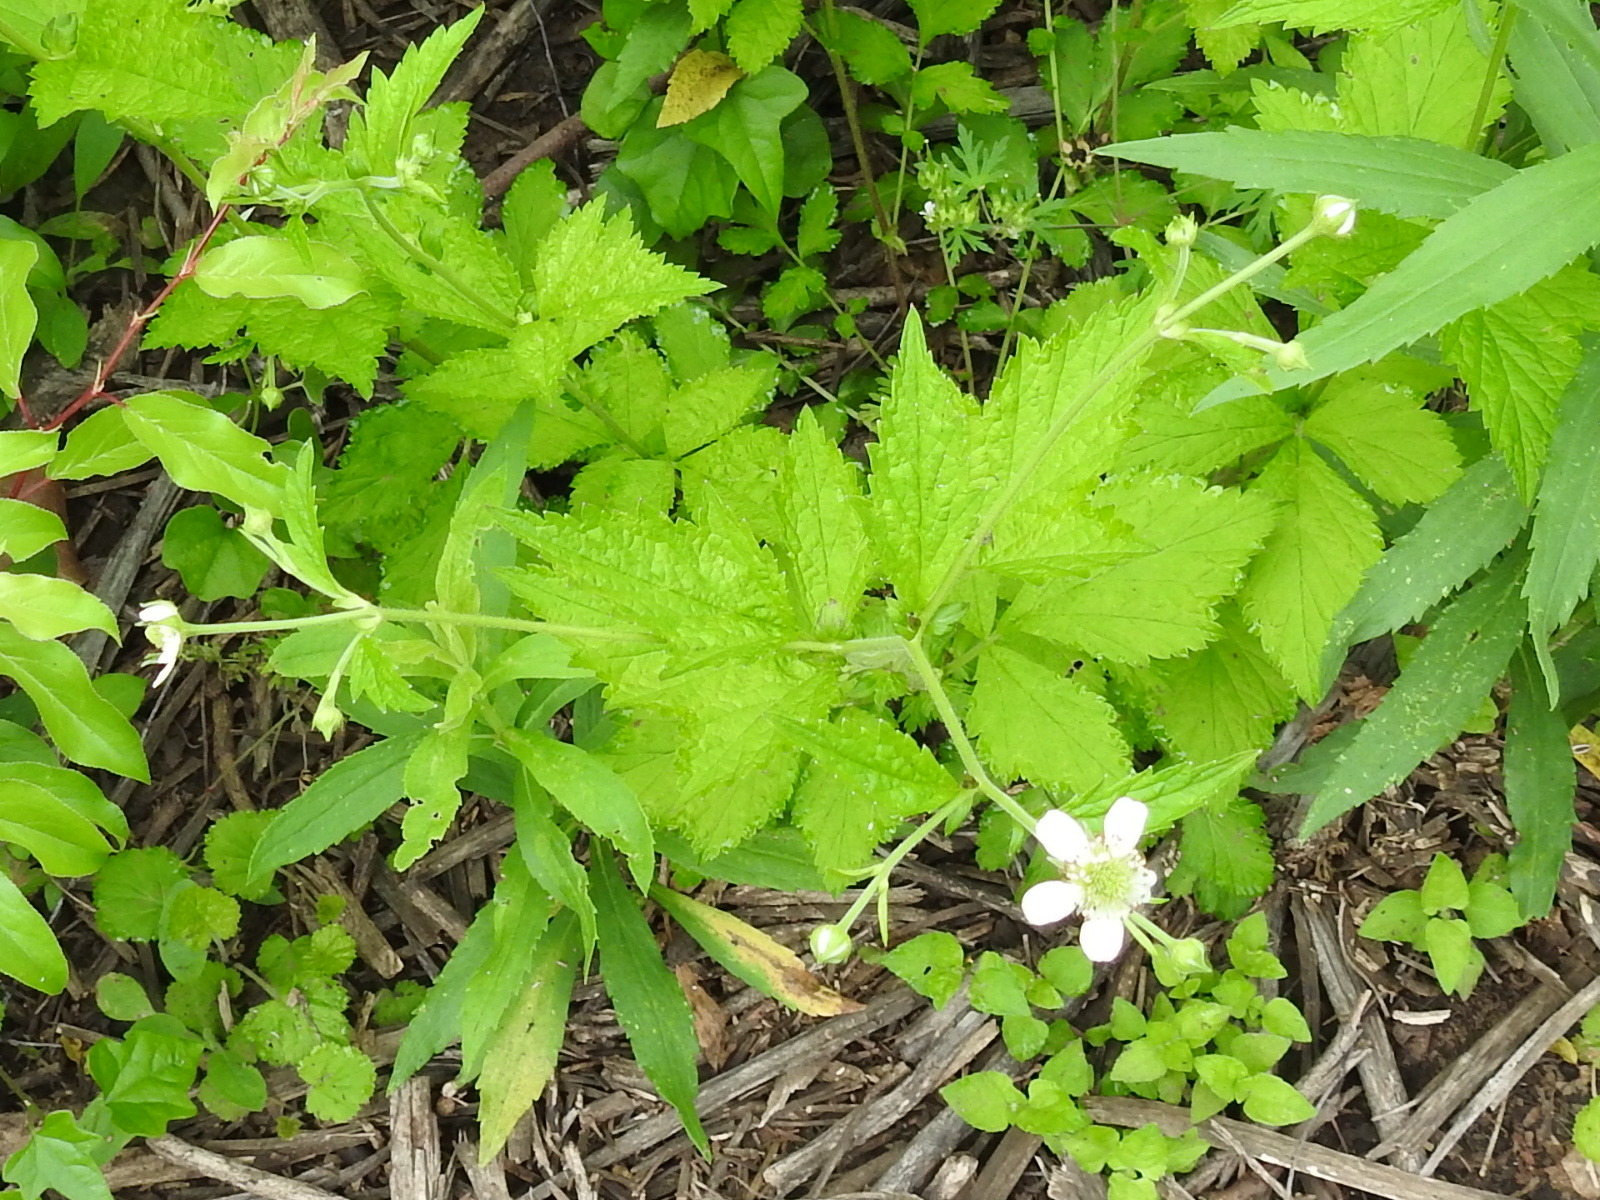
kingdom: Plantae
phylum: Tracheophyta
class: Magnoliopsida
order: Rosales
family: Rosaceae
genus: Geum
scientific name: Geum canadense
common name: White avens
